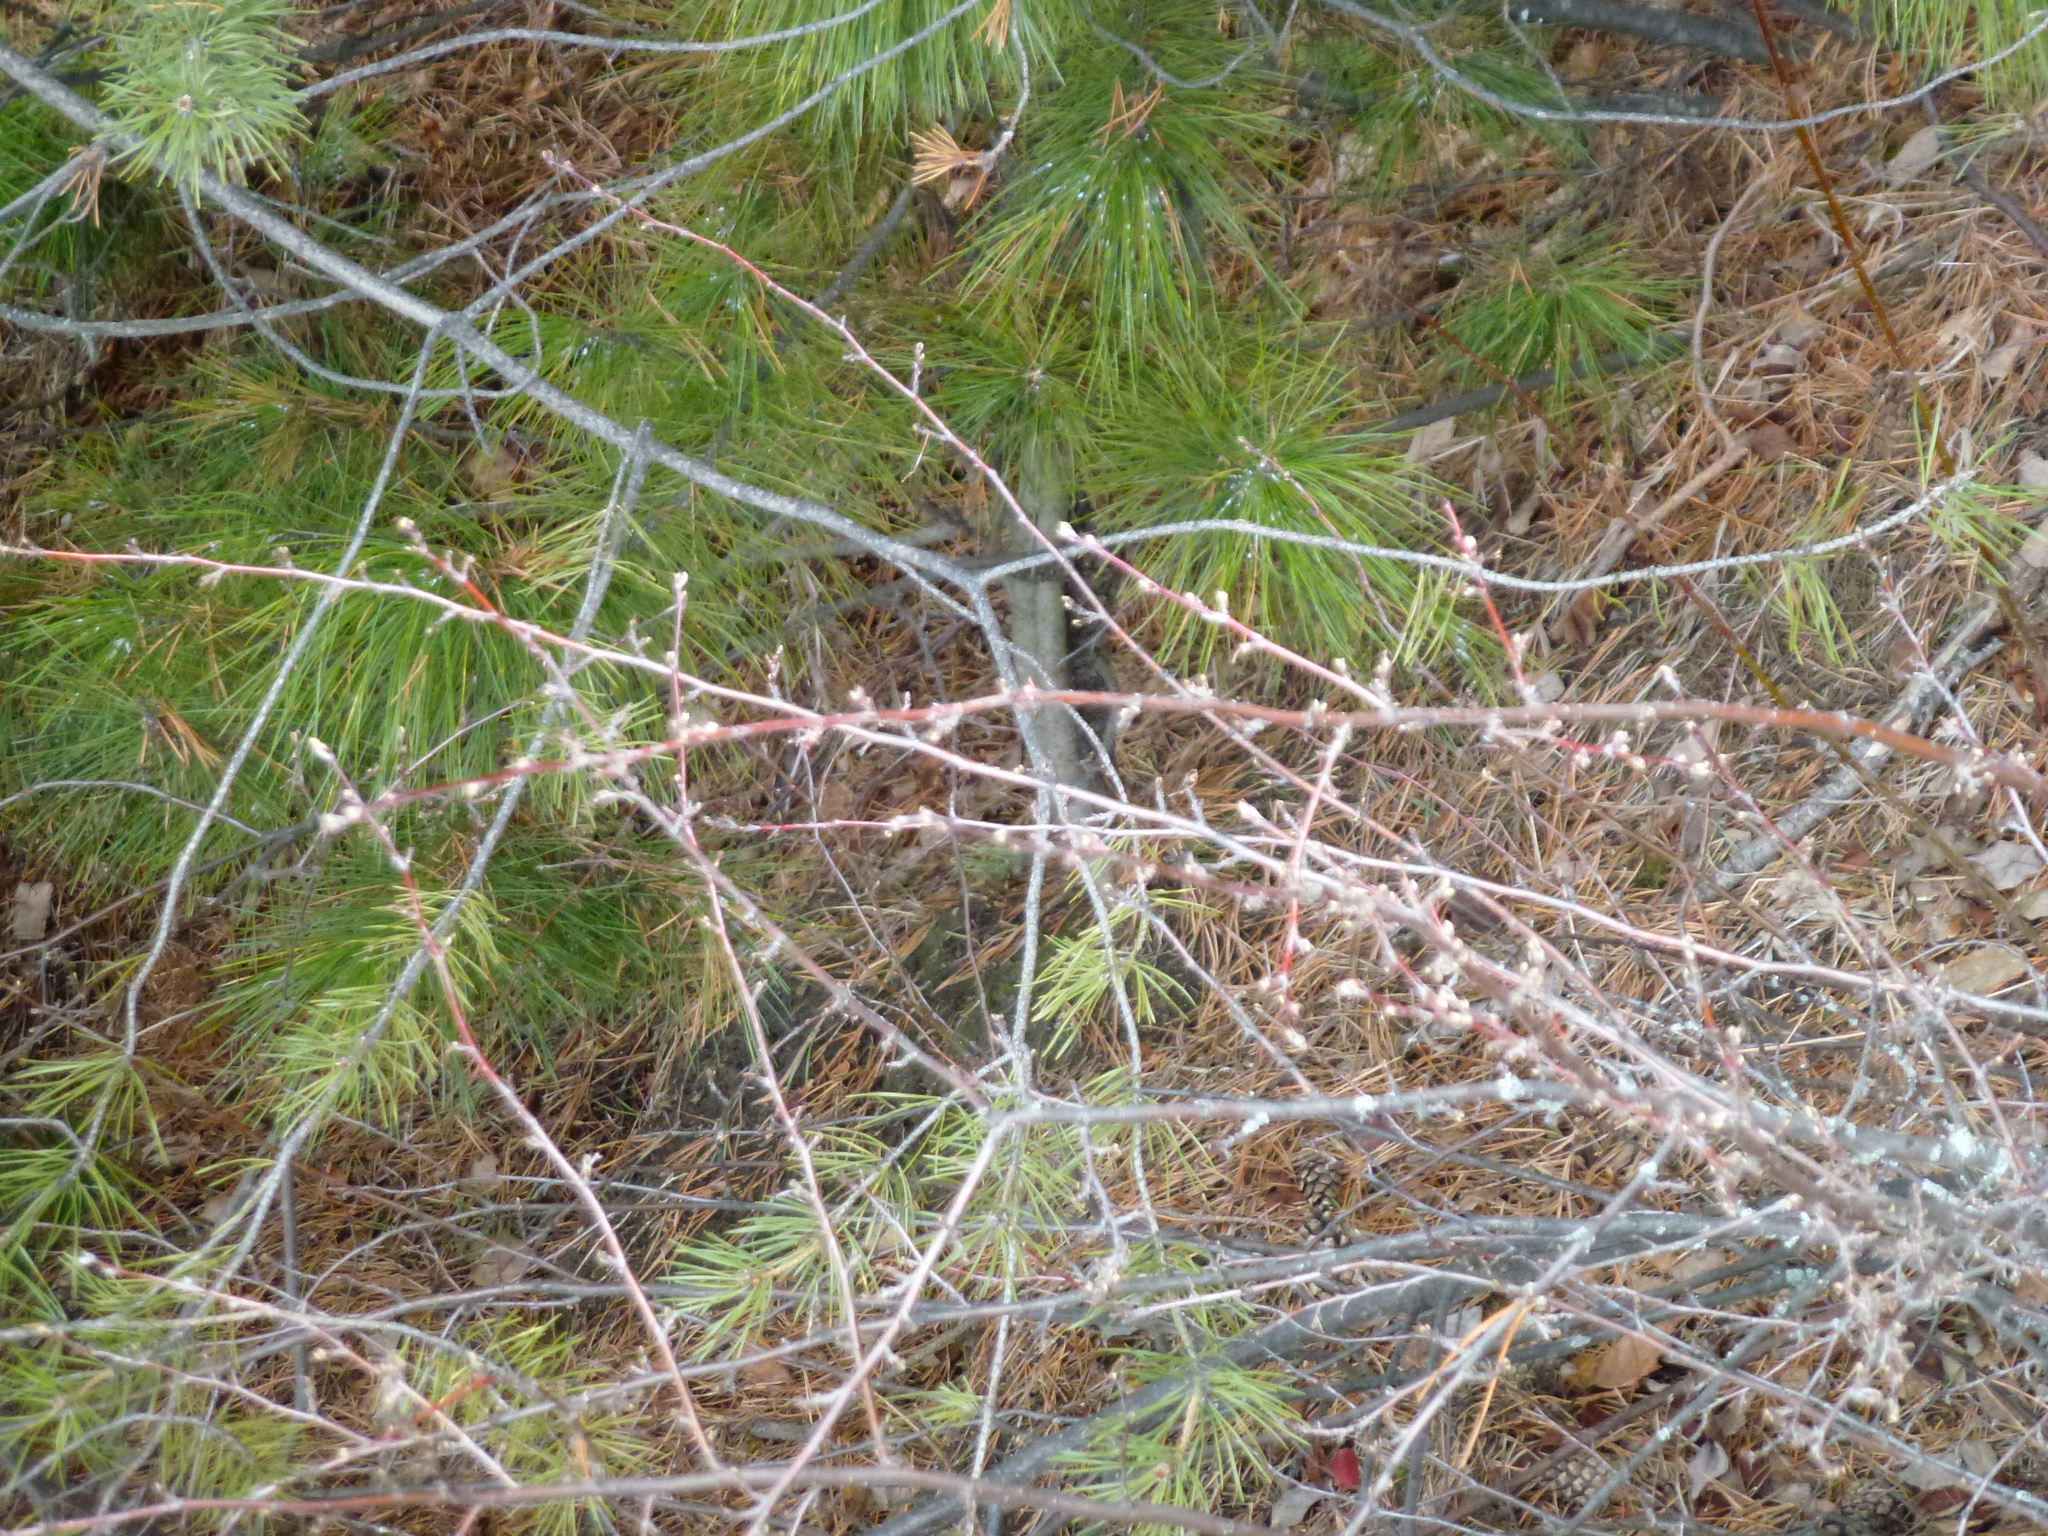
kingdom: Plantae
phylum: Tracheophyta
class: Magnoliopsida
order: Rosales
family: Rosaceae
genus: Cotoneaster
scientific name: Cotoneaster melanocarpus
